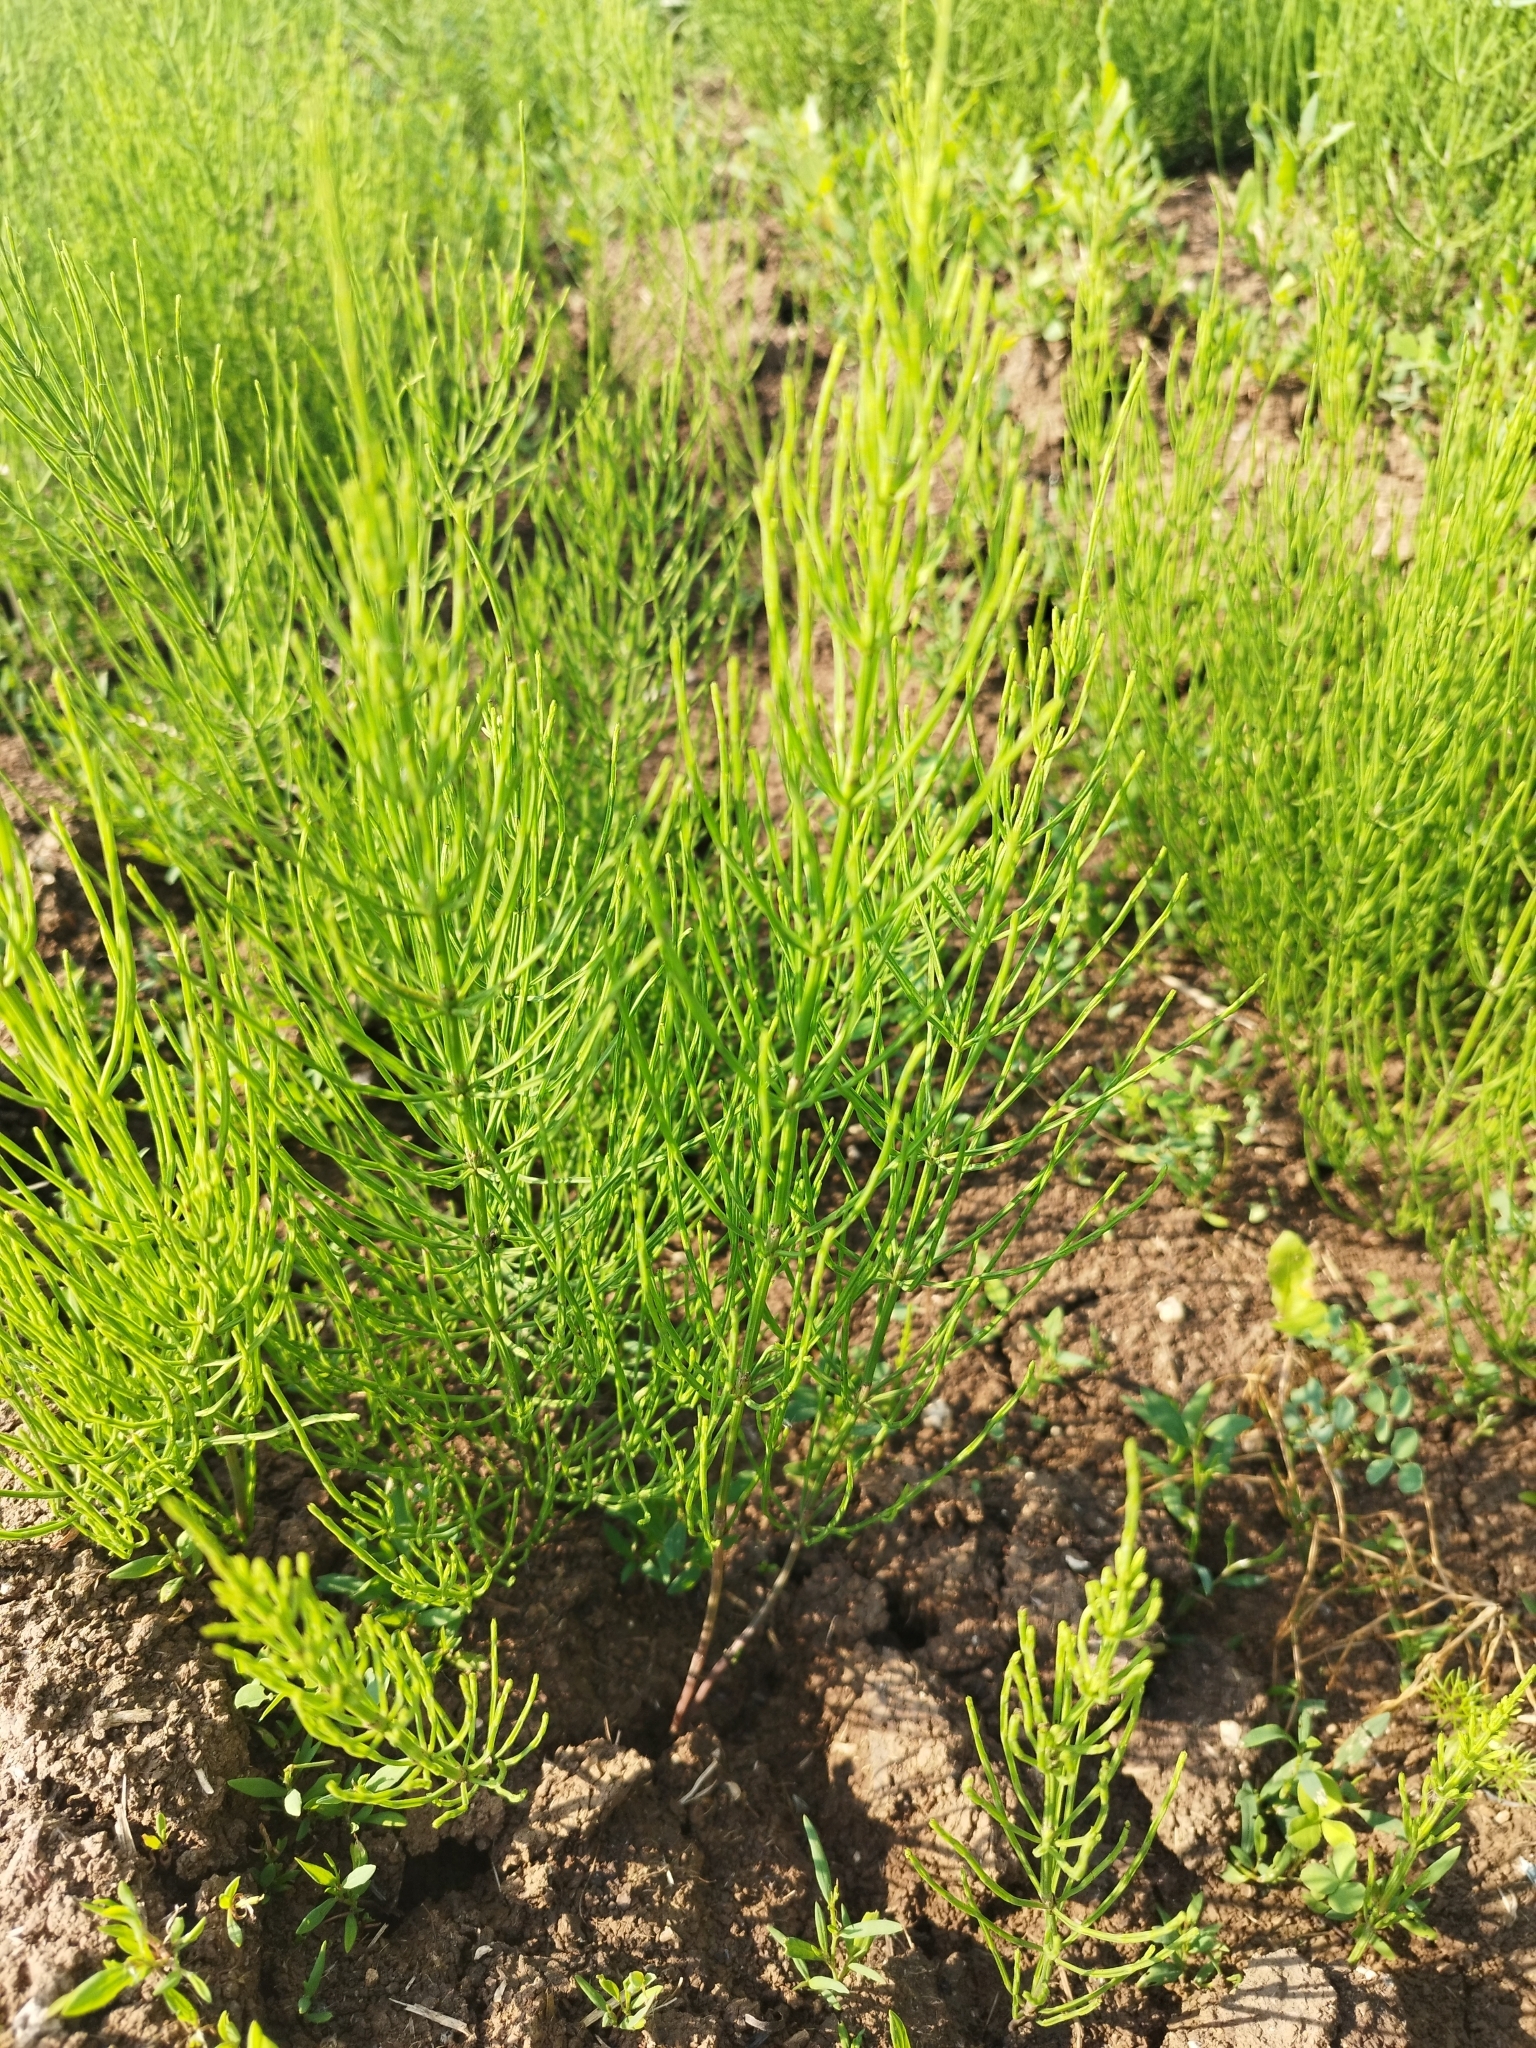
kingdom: Plantae
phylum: Tracheophyta
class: Polypodiopsida
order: Equisetales
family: Equisetaceae
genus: Equisetum
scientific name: Equisetum arvense
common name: Field horsetail
